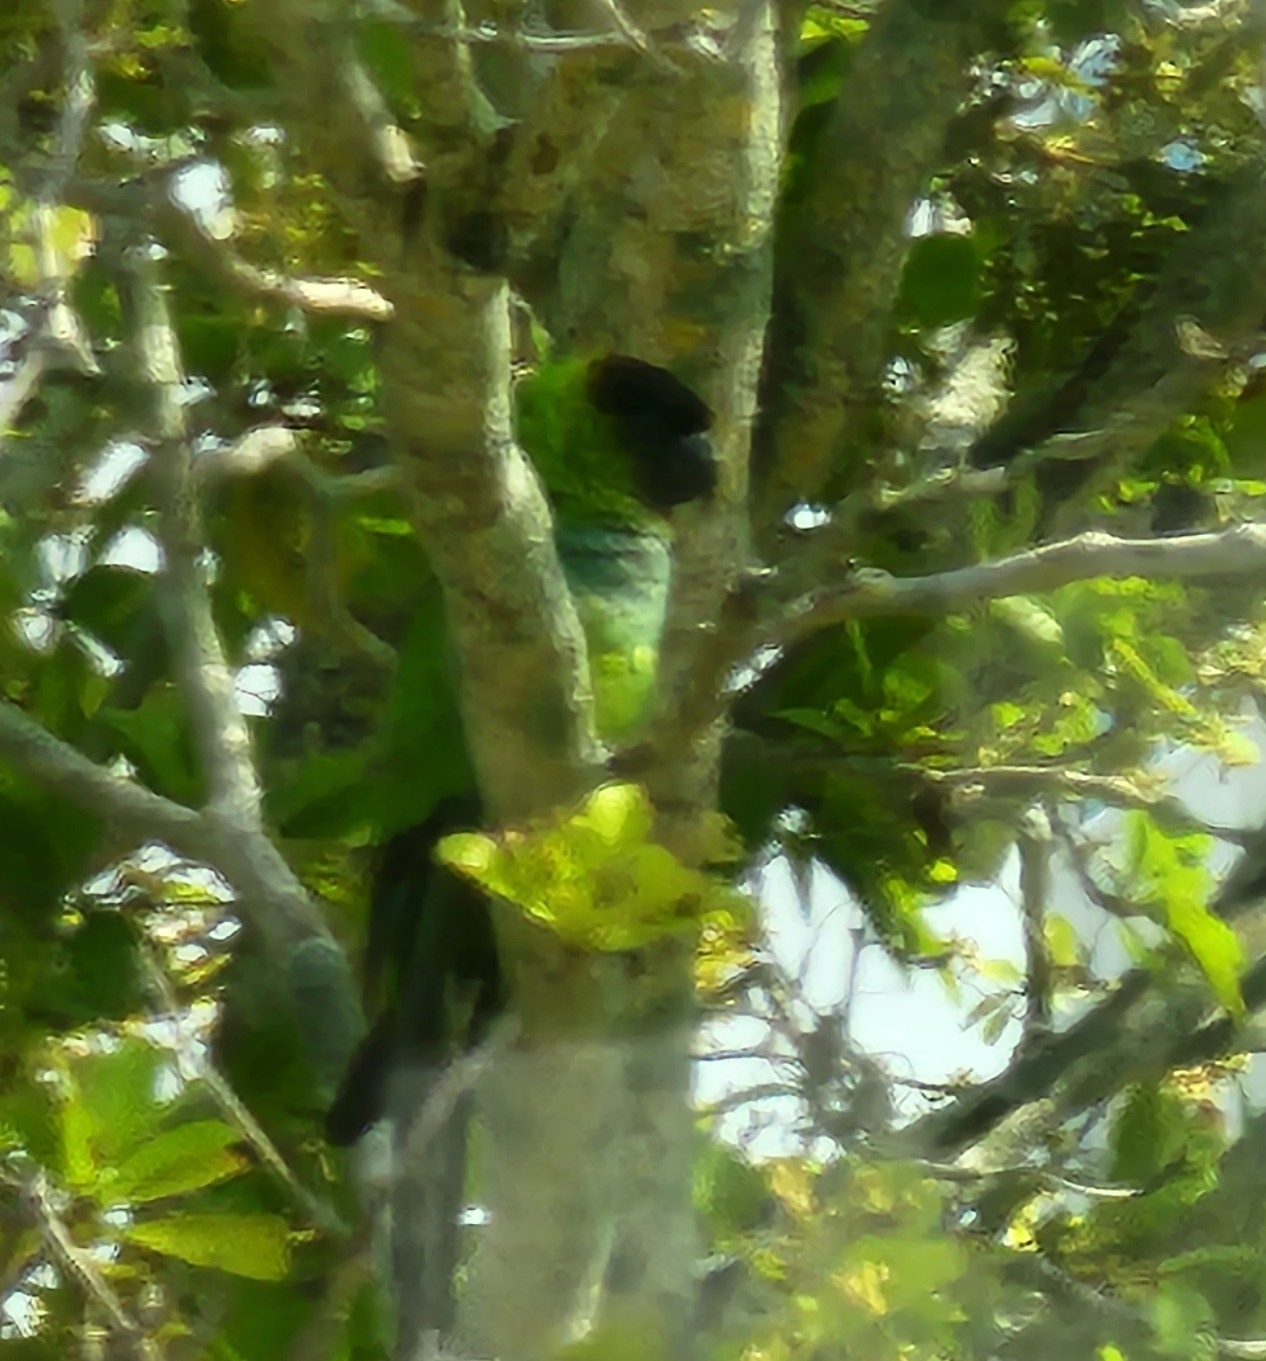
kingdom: Animalia
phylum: Chordata
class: Aves
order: Psittaciformes
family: Psittacidae
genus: Nandayus
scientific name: Nandayus nenday
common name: Nanday parakeet
